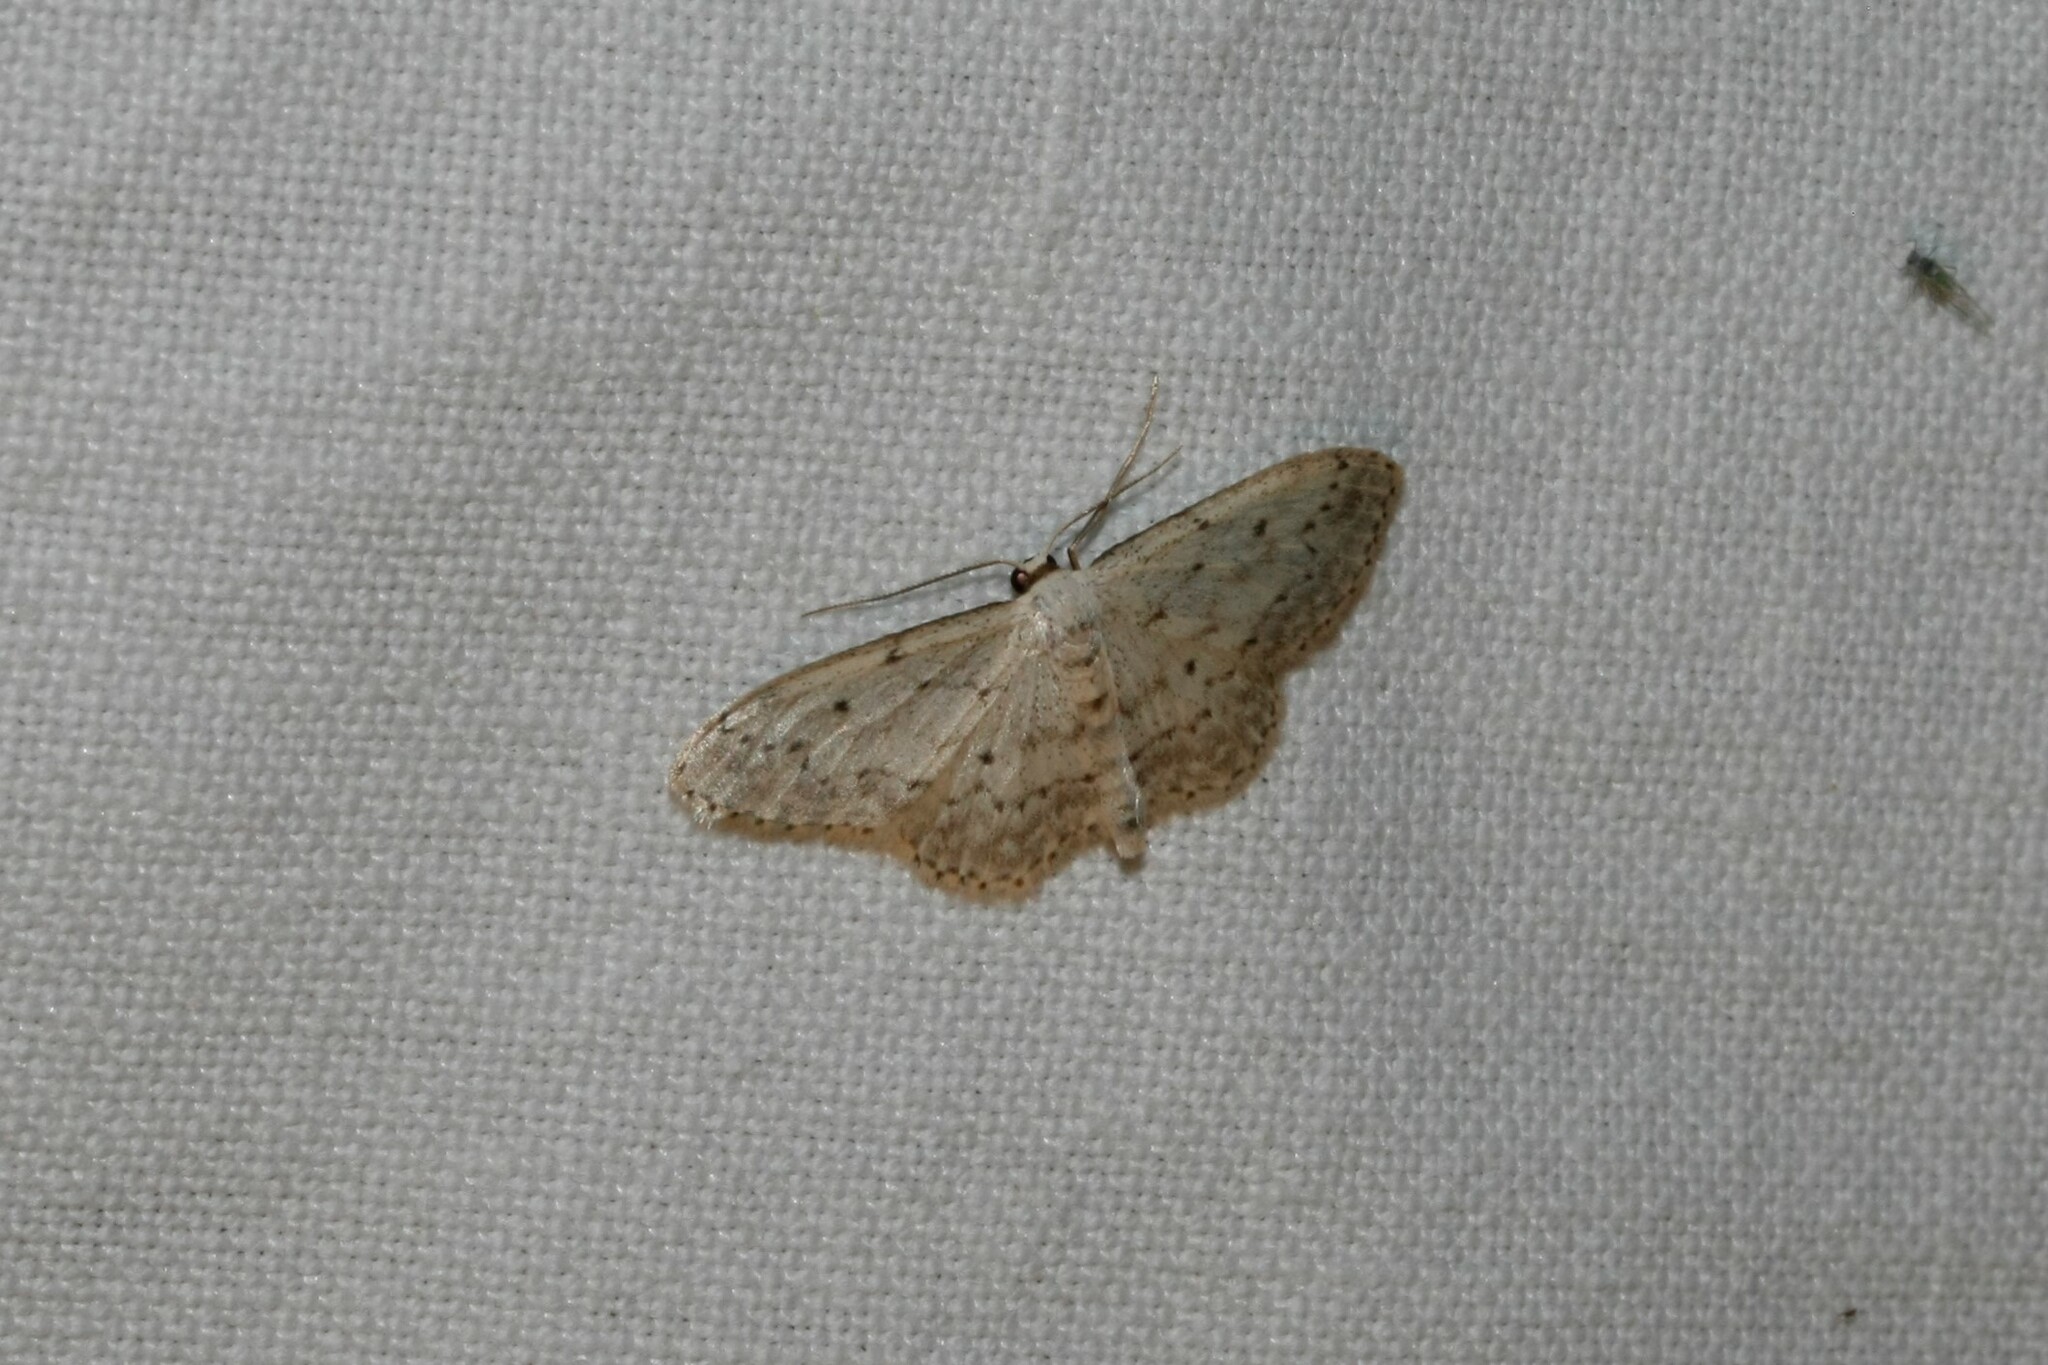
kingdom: Animalia
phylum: Arthropoda
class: Insecta
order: Lepidoptera
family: Geometridae
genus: Idaea
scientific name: Idaea seriata
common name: Small dusty wave
